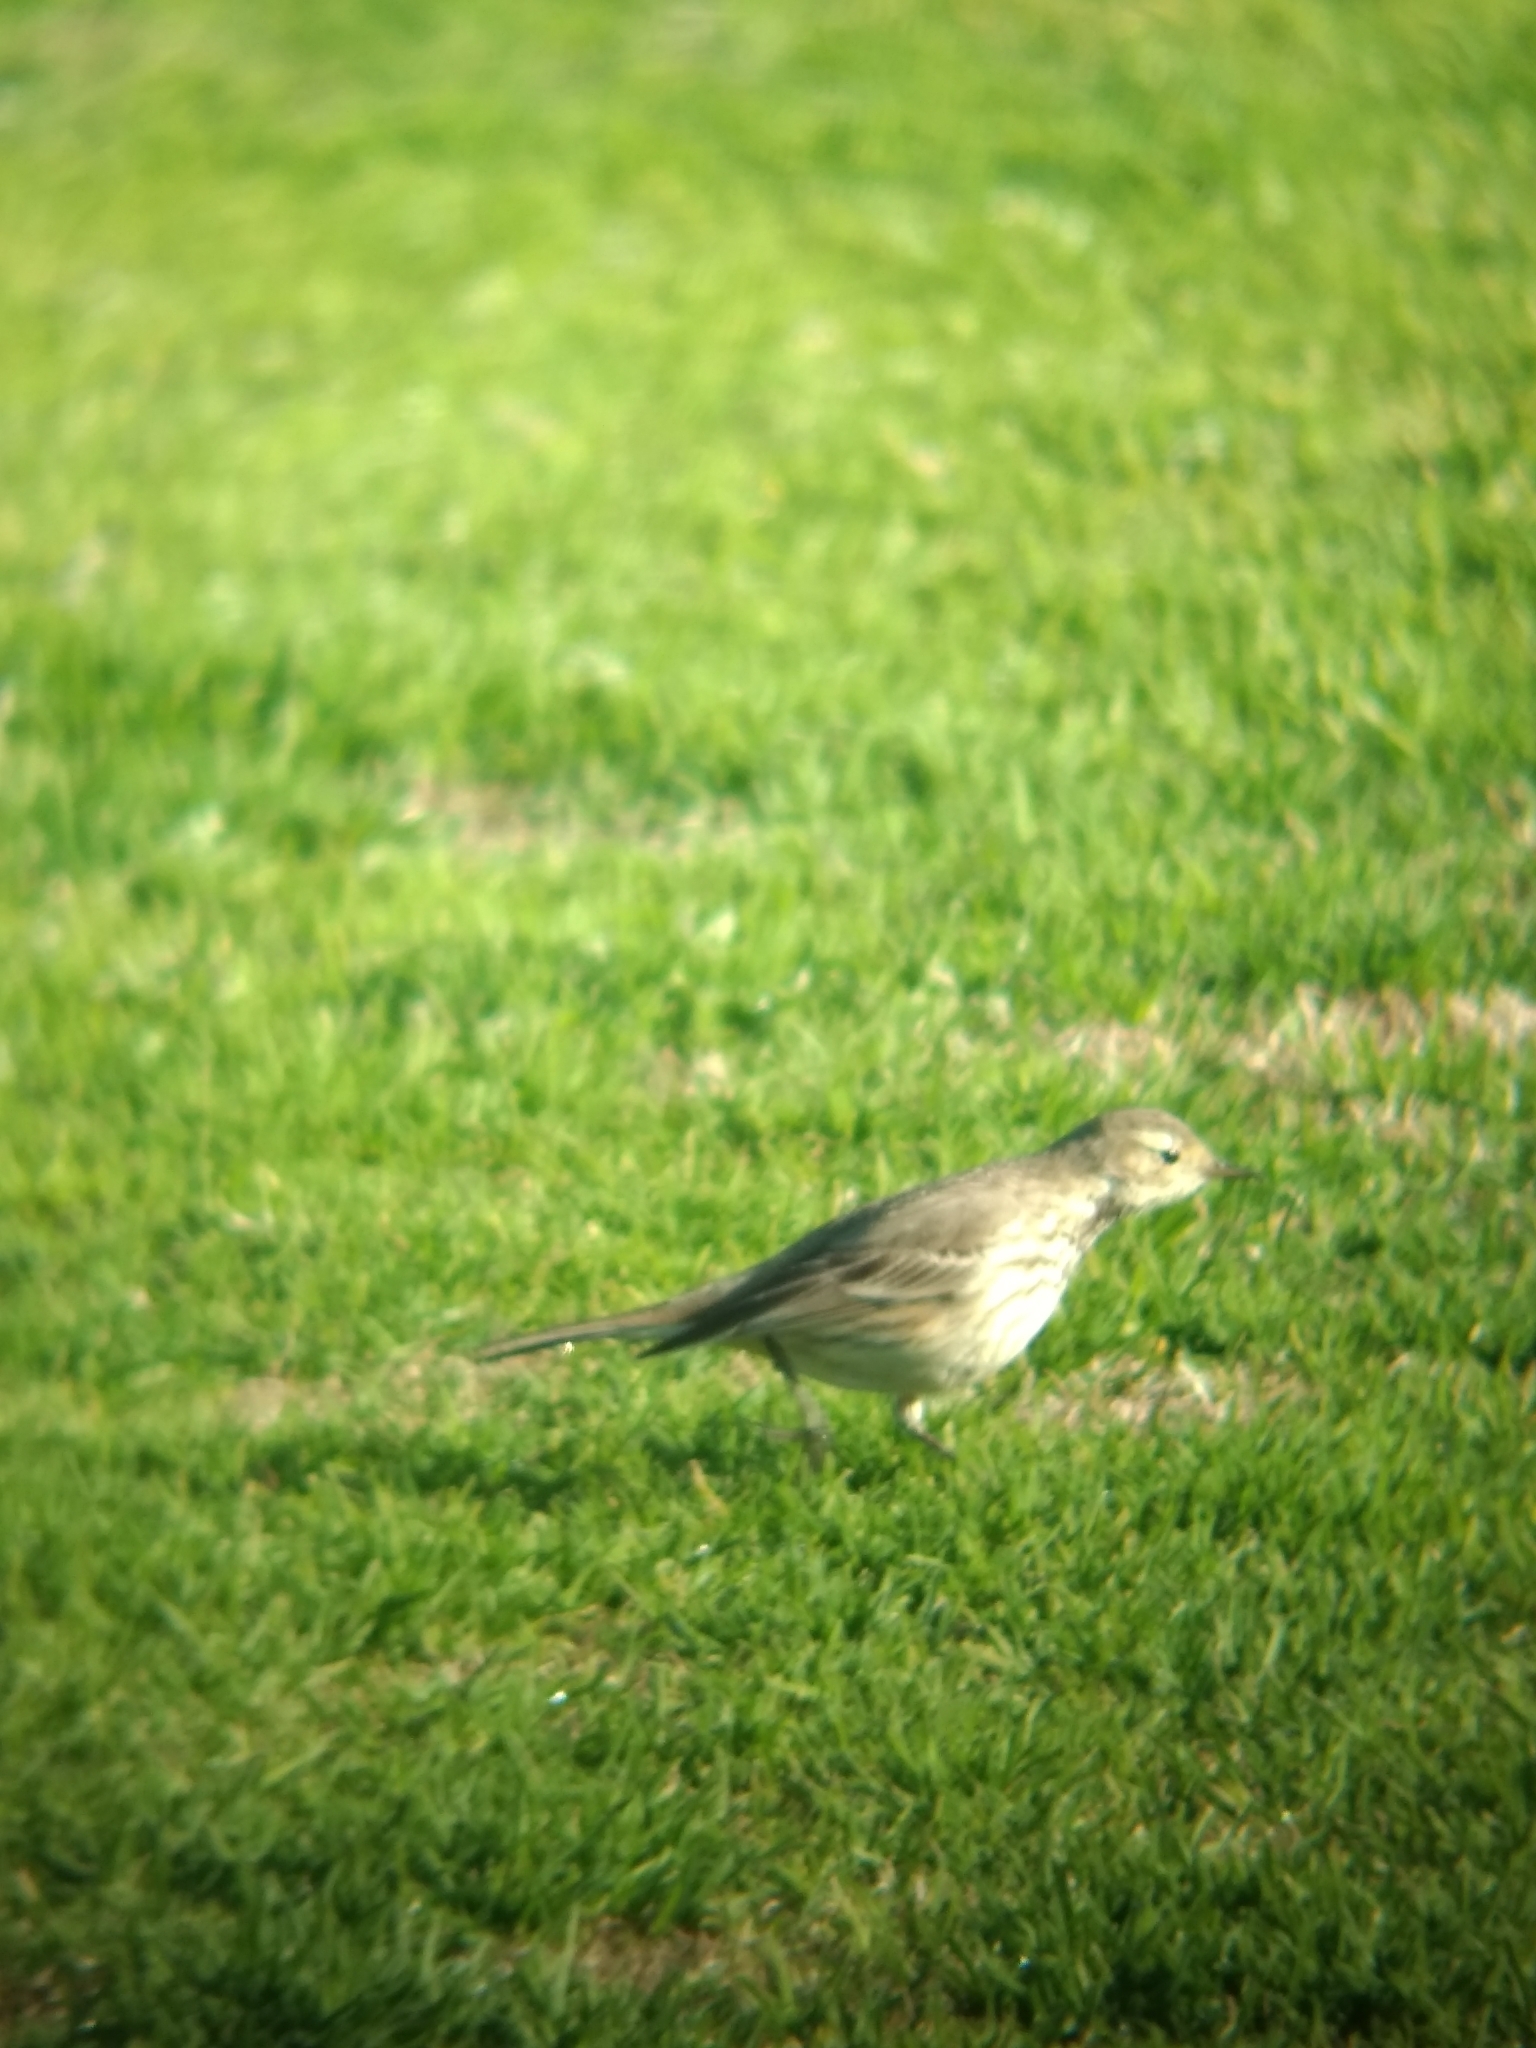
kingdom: Animalia
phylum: Chordata
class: Aves
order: Passeriformes
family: Motacillidae
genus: Anthus
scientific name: Anthus rubescens
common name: Buff-bellied pipit
